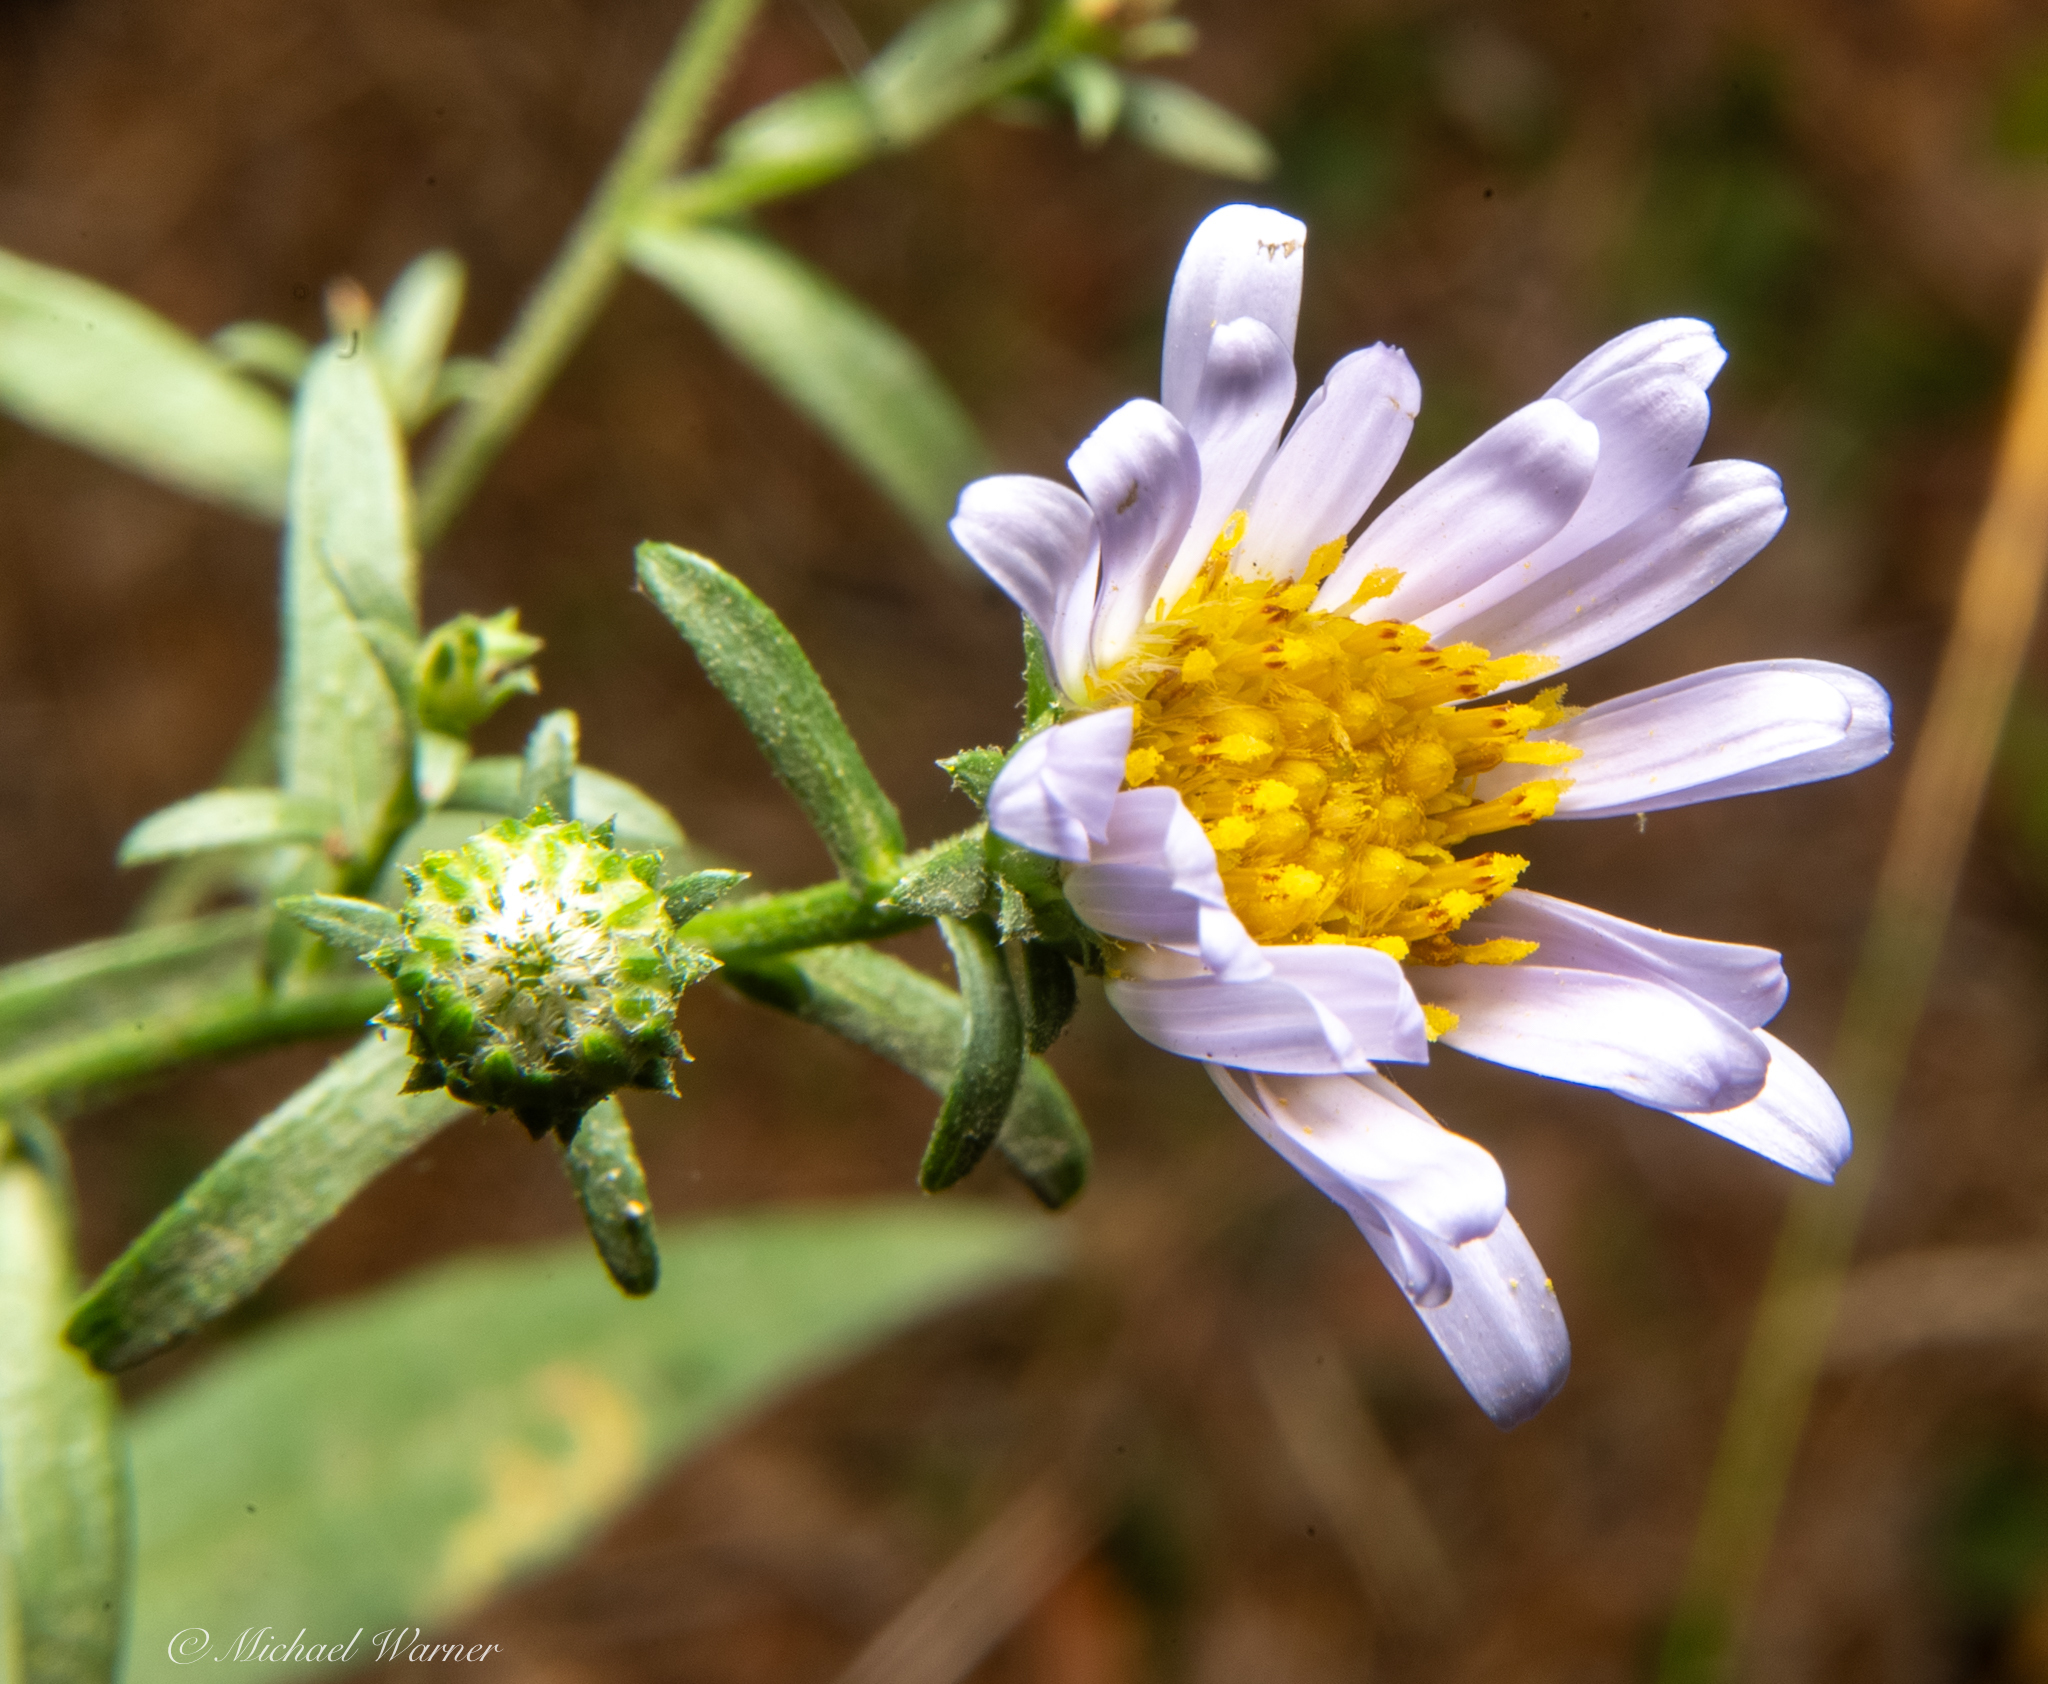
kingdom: Plantae
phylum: Tracheophyta
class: Magnoliopsida
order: Asterales
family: Asteraceae
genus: Symphyotrichum
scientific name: Symphyotrichum chilense
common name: Pacific aster
